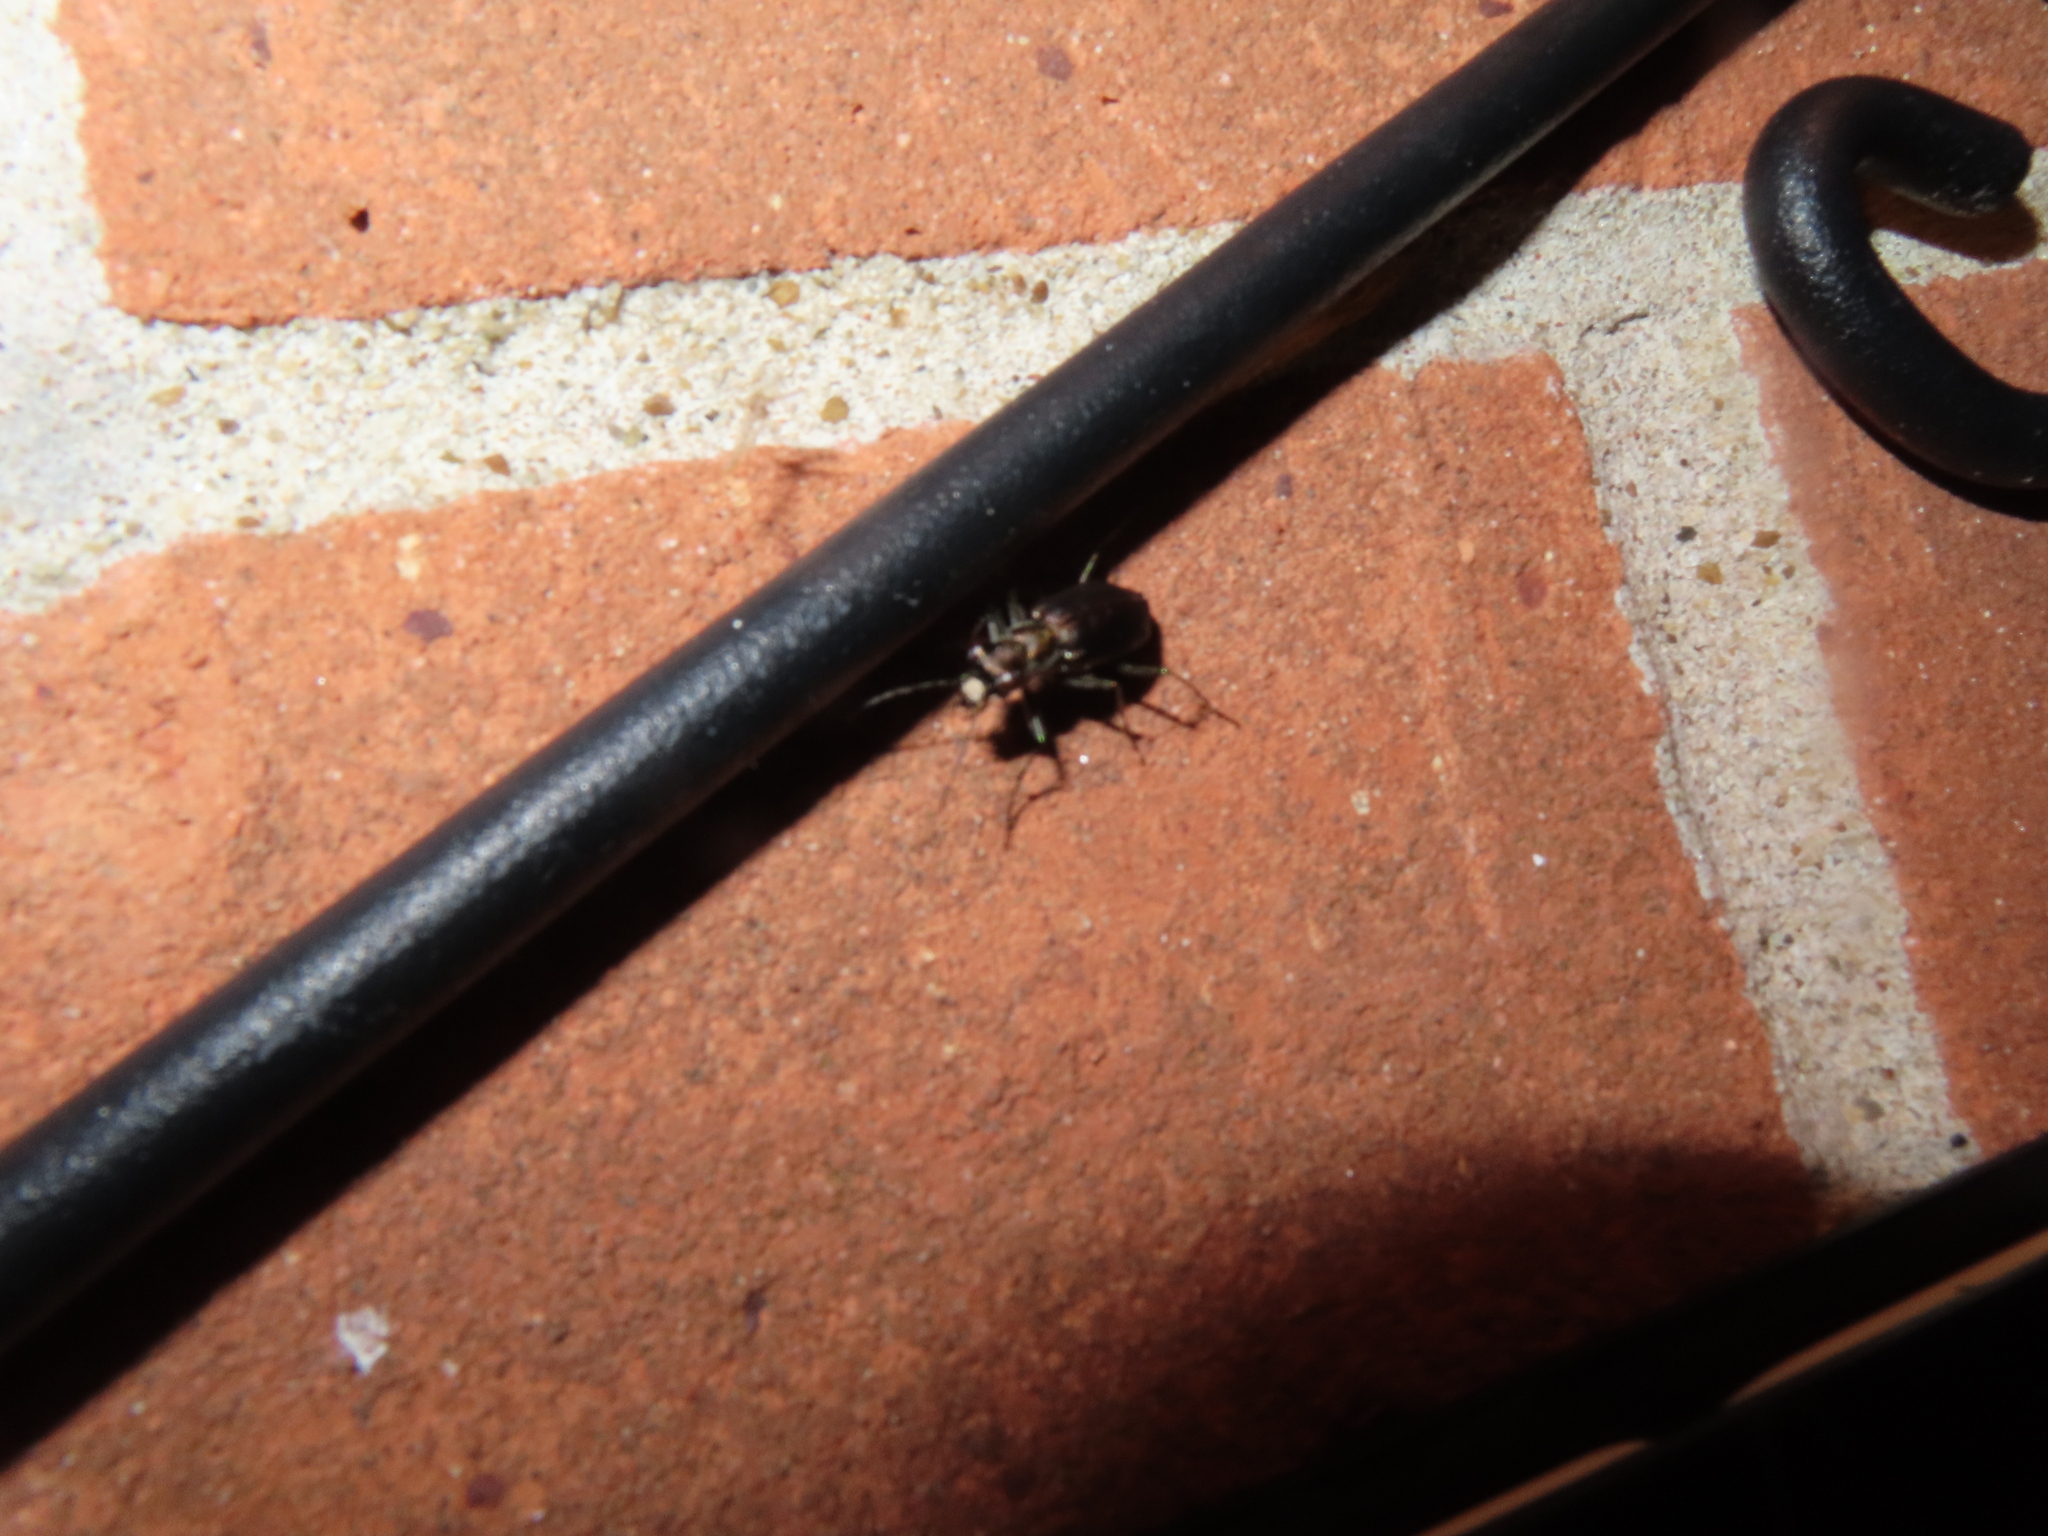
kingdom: Animalia
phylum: Arthropoda
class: Insecta
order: Coleoptera
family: Carabidae
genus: Cicindela
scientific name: Cicindela punctulata
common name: Punctured tiger beetle
